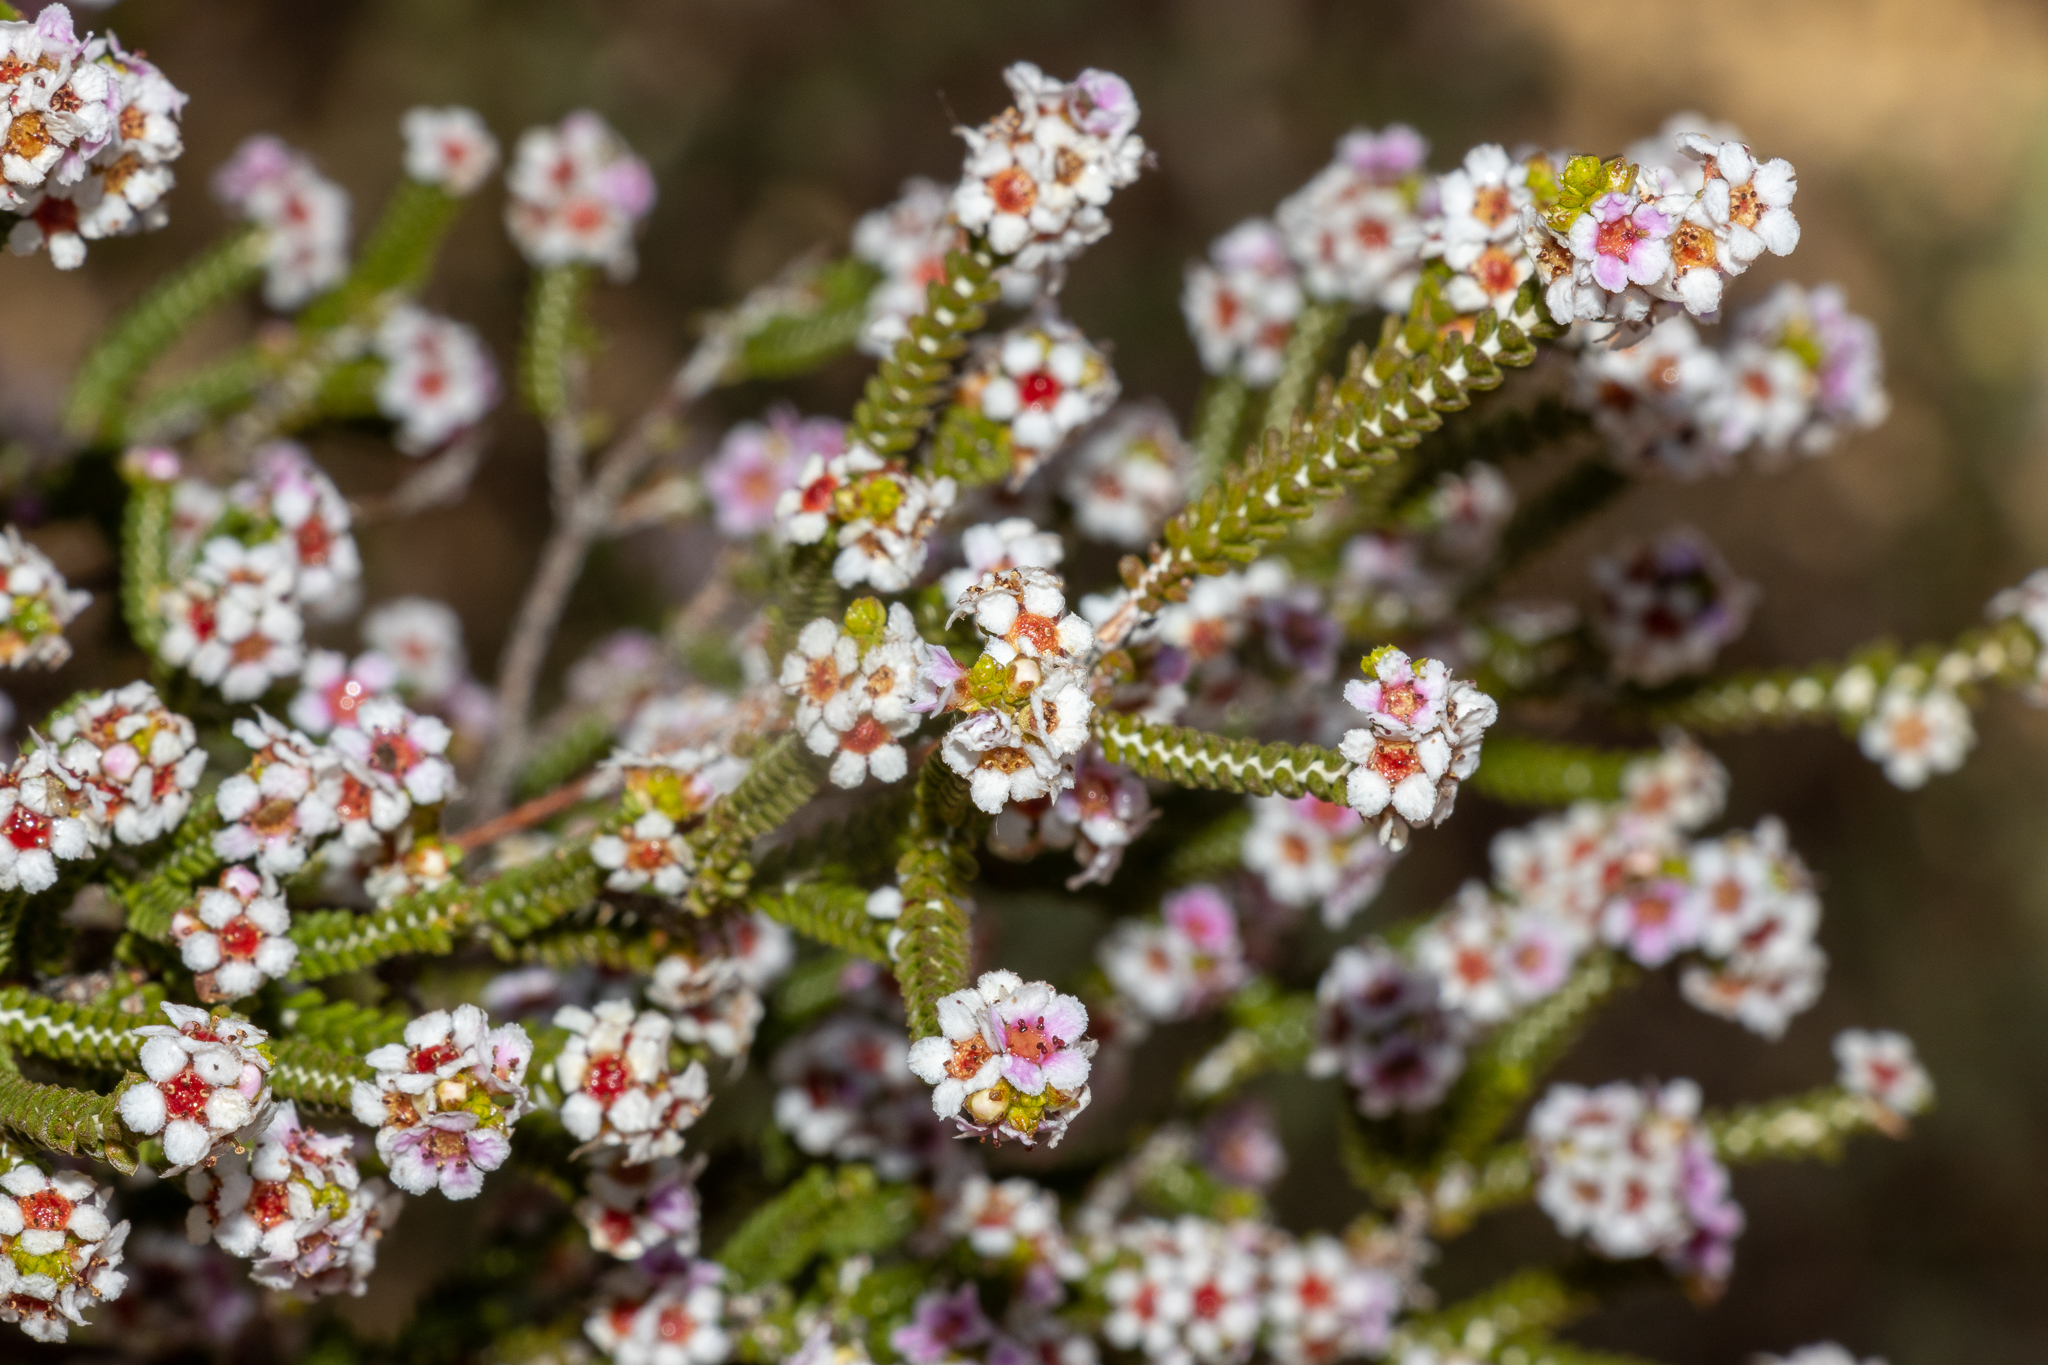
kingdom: Plantae
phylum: Tracheophyta
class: Magnoliopsida
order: Myrtales
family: Myrtaceae
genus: Aluta
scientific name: Aluta maisonneuvei
